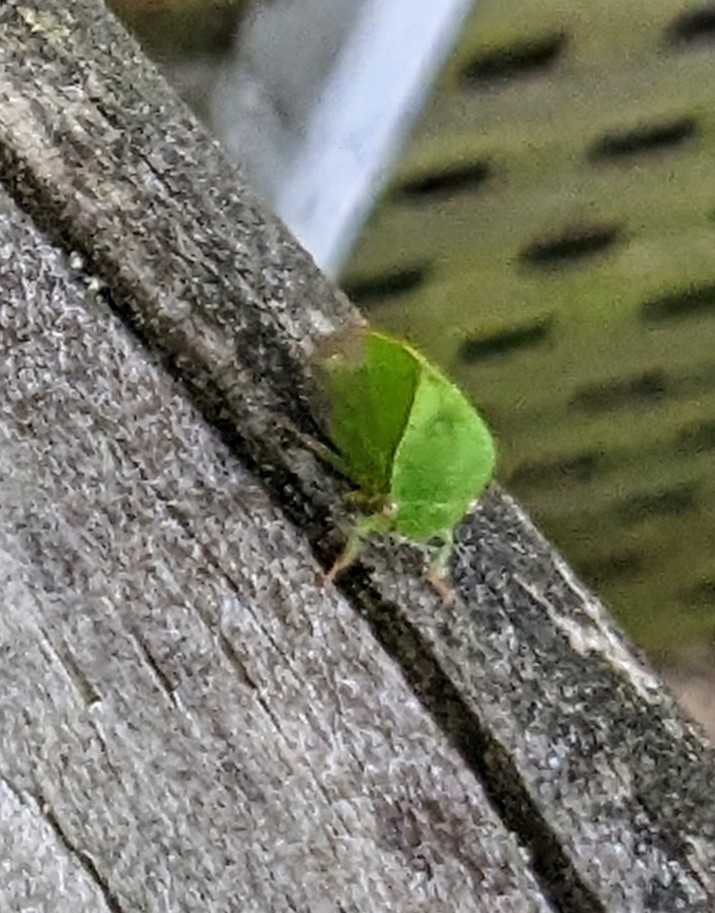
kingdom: Animalia
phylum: Arthropoda
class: Insecta
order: Hemiptera
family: Membracidae
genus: Spissistilus
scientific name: Spissistilus festina
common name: Membracid bug
